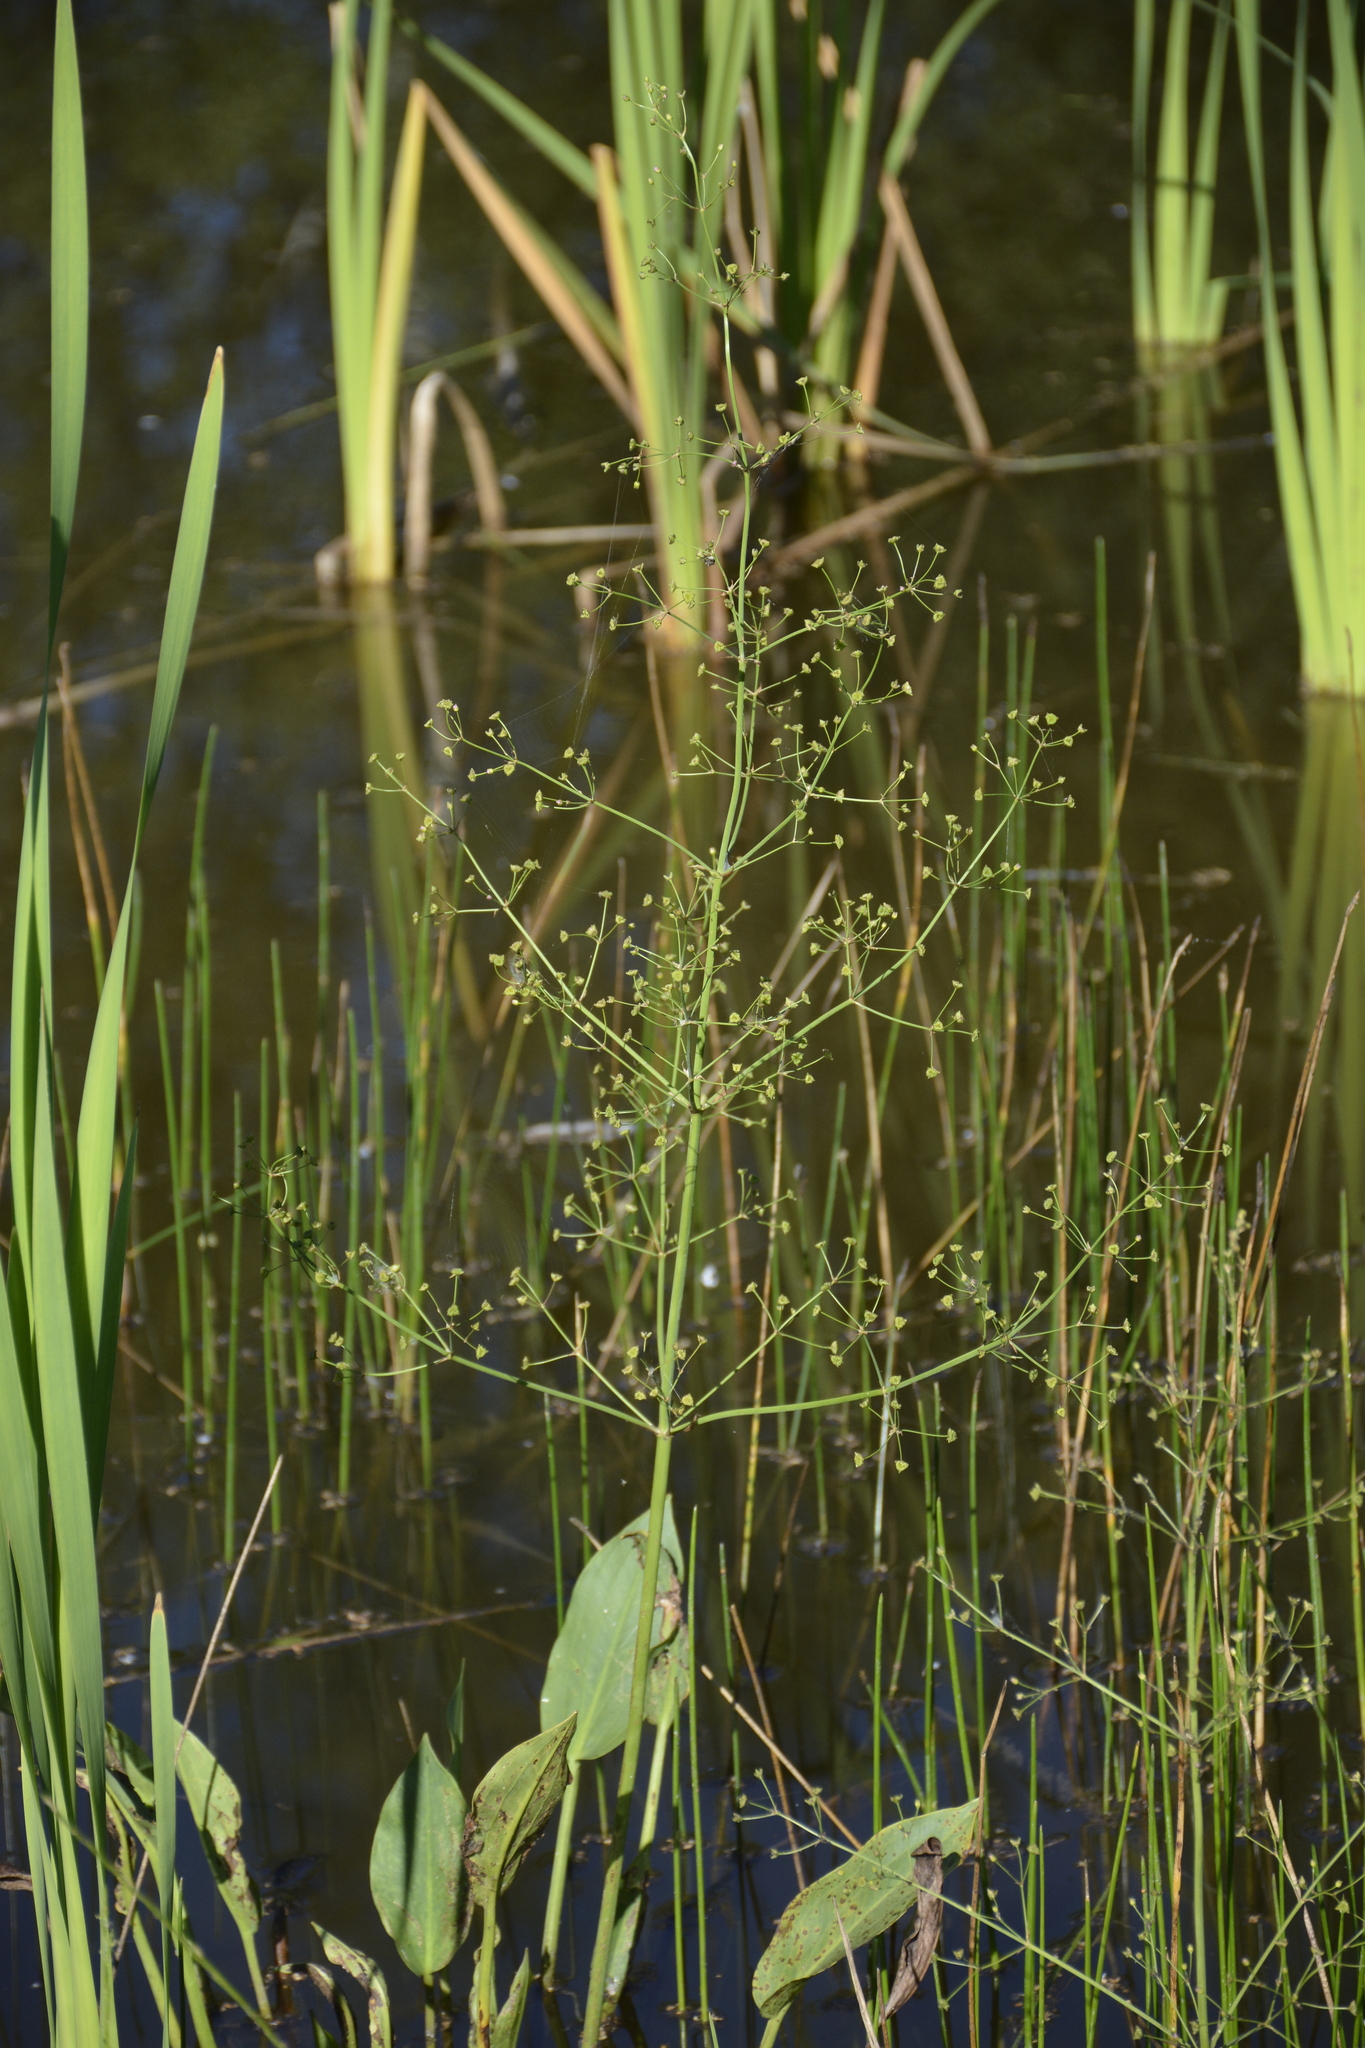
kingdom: Plantae
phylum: Tracheophyta
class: Liliopsida
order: Alismatales
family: Alismataceae
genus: Alisma
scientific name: Alisma plantago-aquatica
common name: Water-plantain
